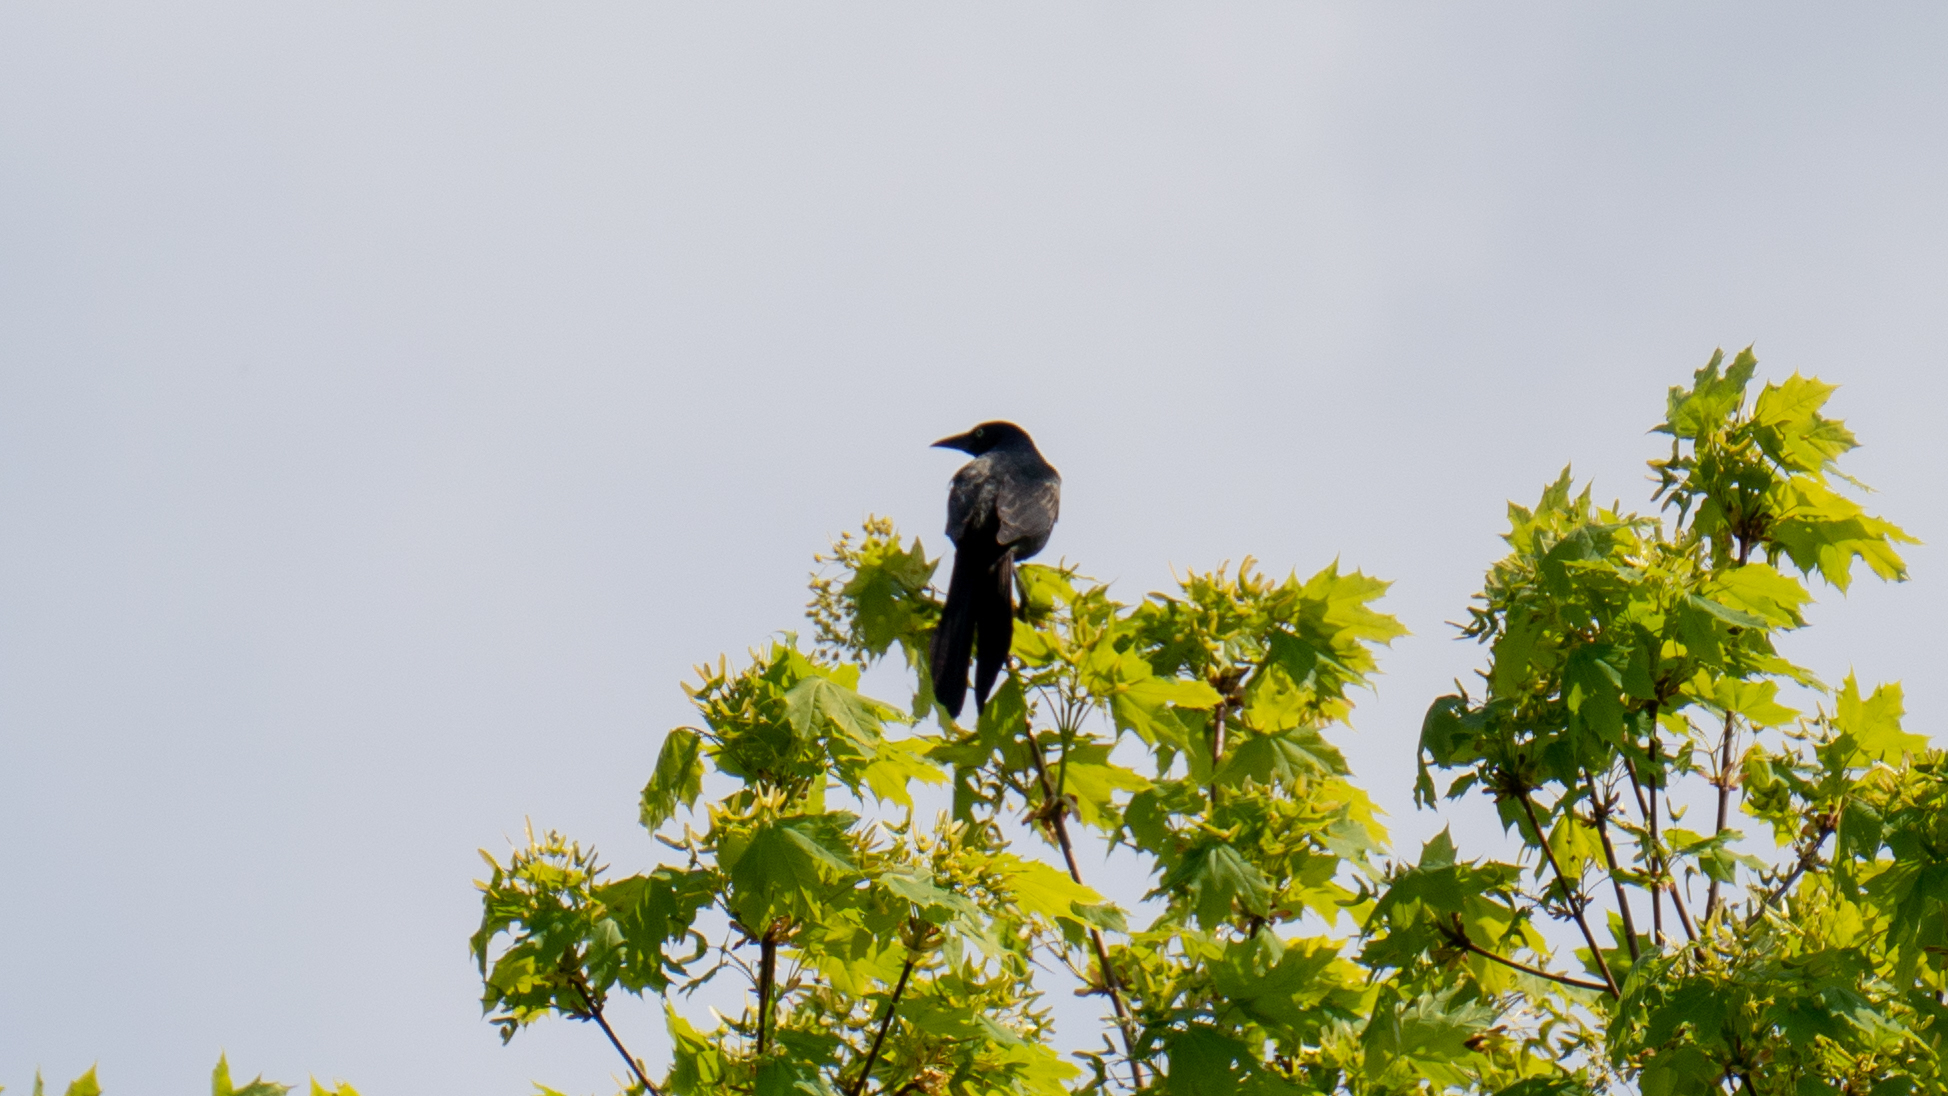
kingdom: Animalia
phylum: Chordata
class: Aves
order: Passeriformes
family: Icteridae
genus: Quiscalus
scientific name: Quiscalus quiscula
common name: Common grackle
